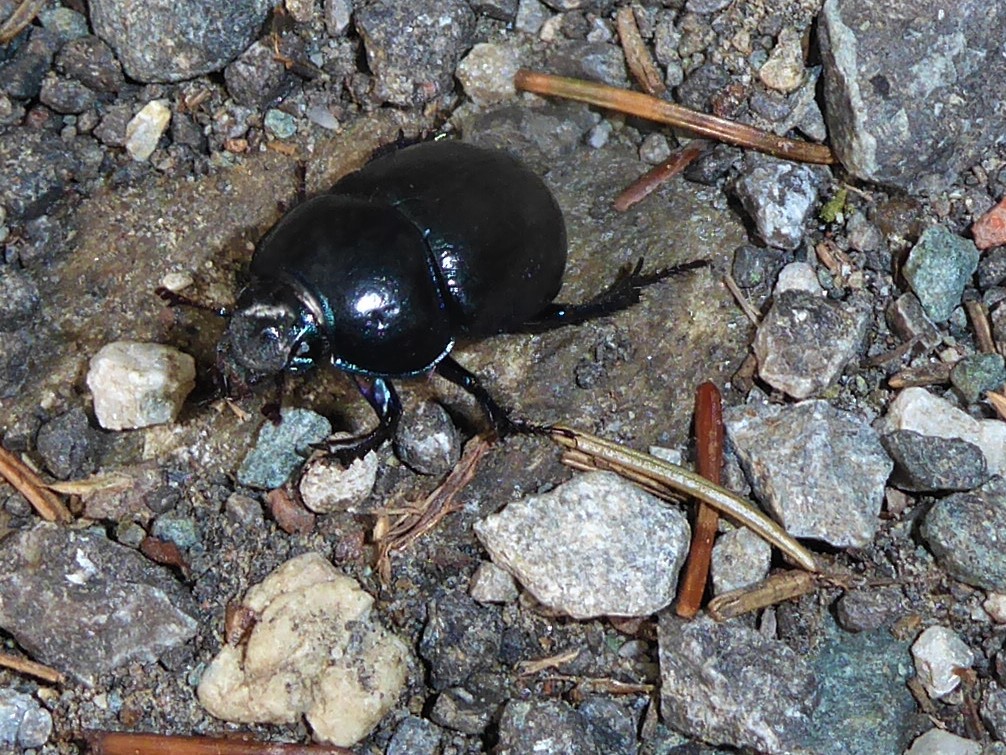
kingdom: Animalia
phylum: Arthropoda
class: Insecta
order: Coleoptera
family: Geotrupidae
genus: Anoplotrupes
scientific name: Anoplotrupes stercorosus
